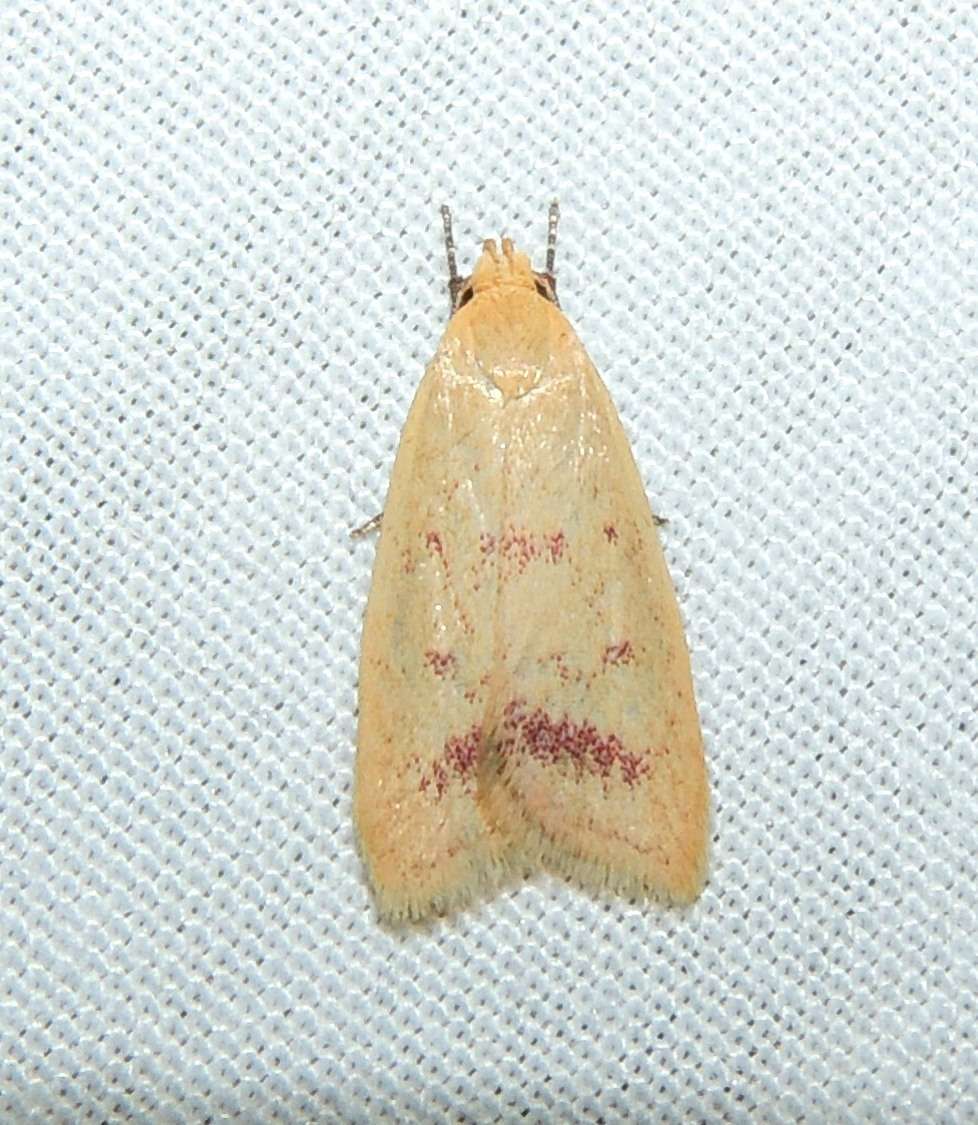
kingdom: Animalia
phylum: Arthropoda
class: Insecta
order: Lepidoptera
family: Oecophoridae
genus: Heteroteucha
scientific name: Heteroteucha occidua
